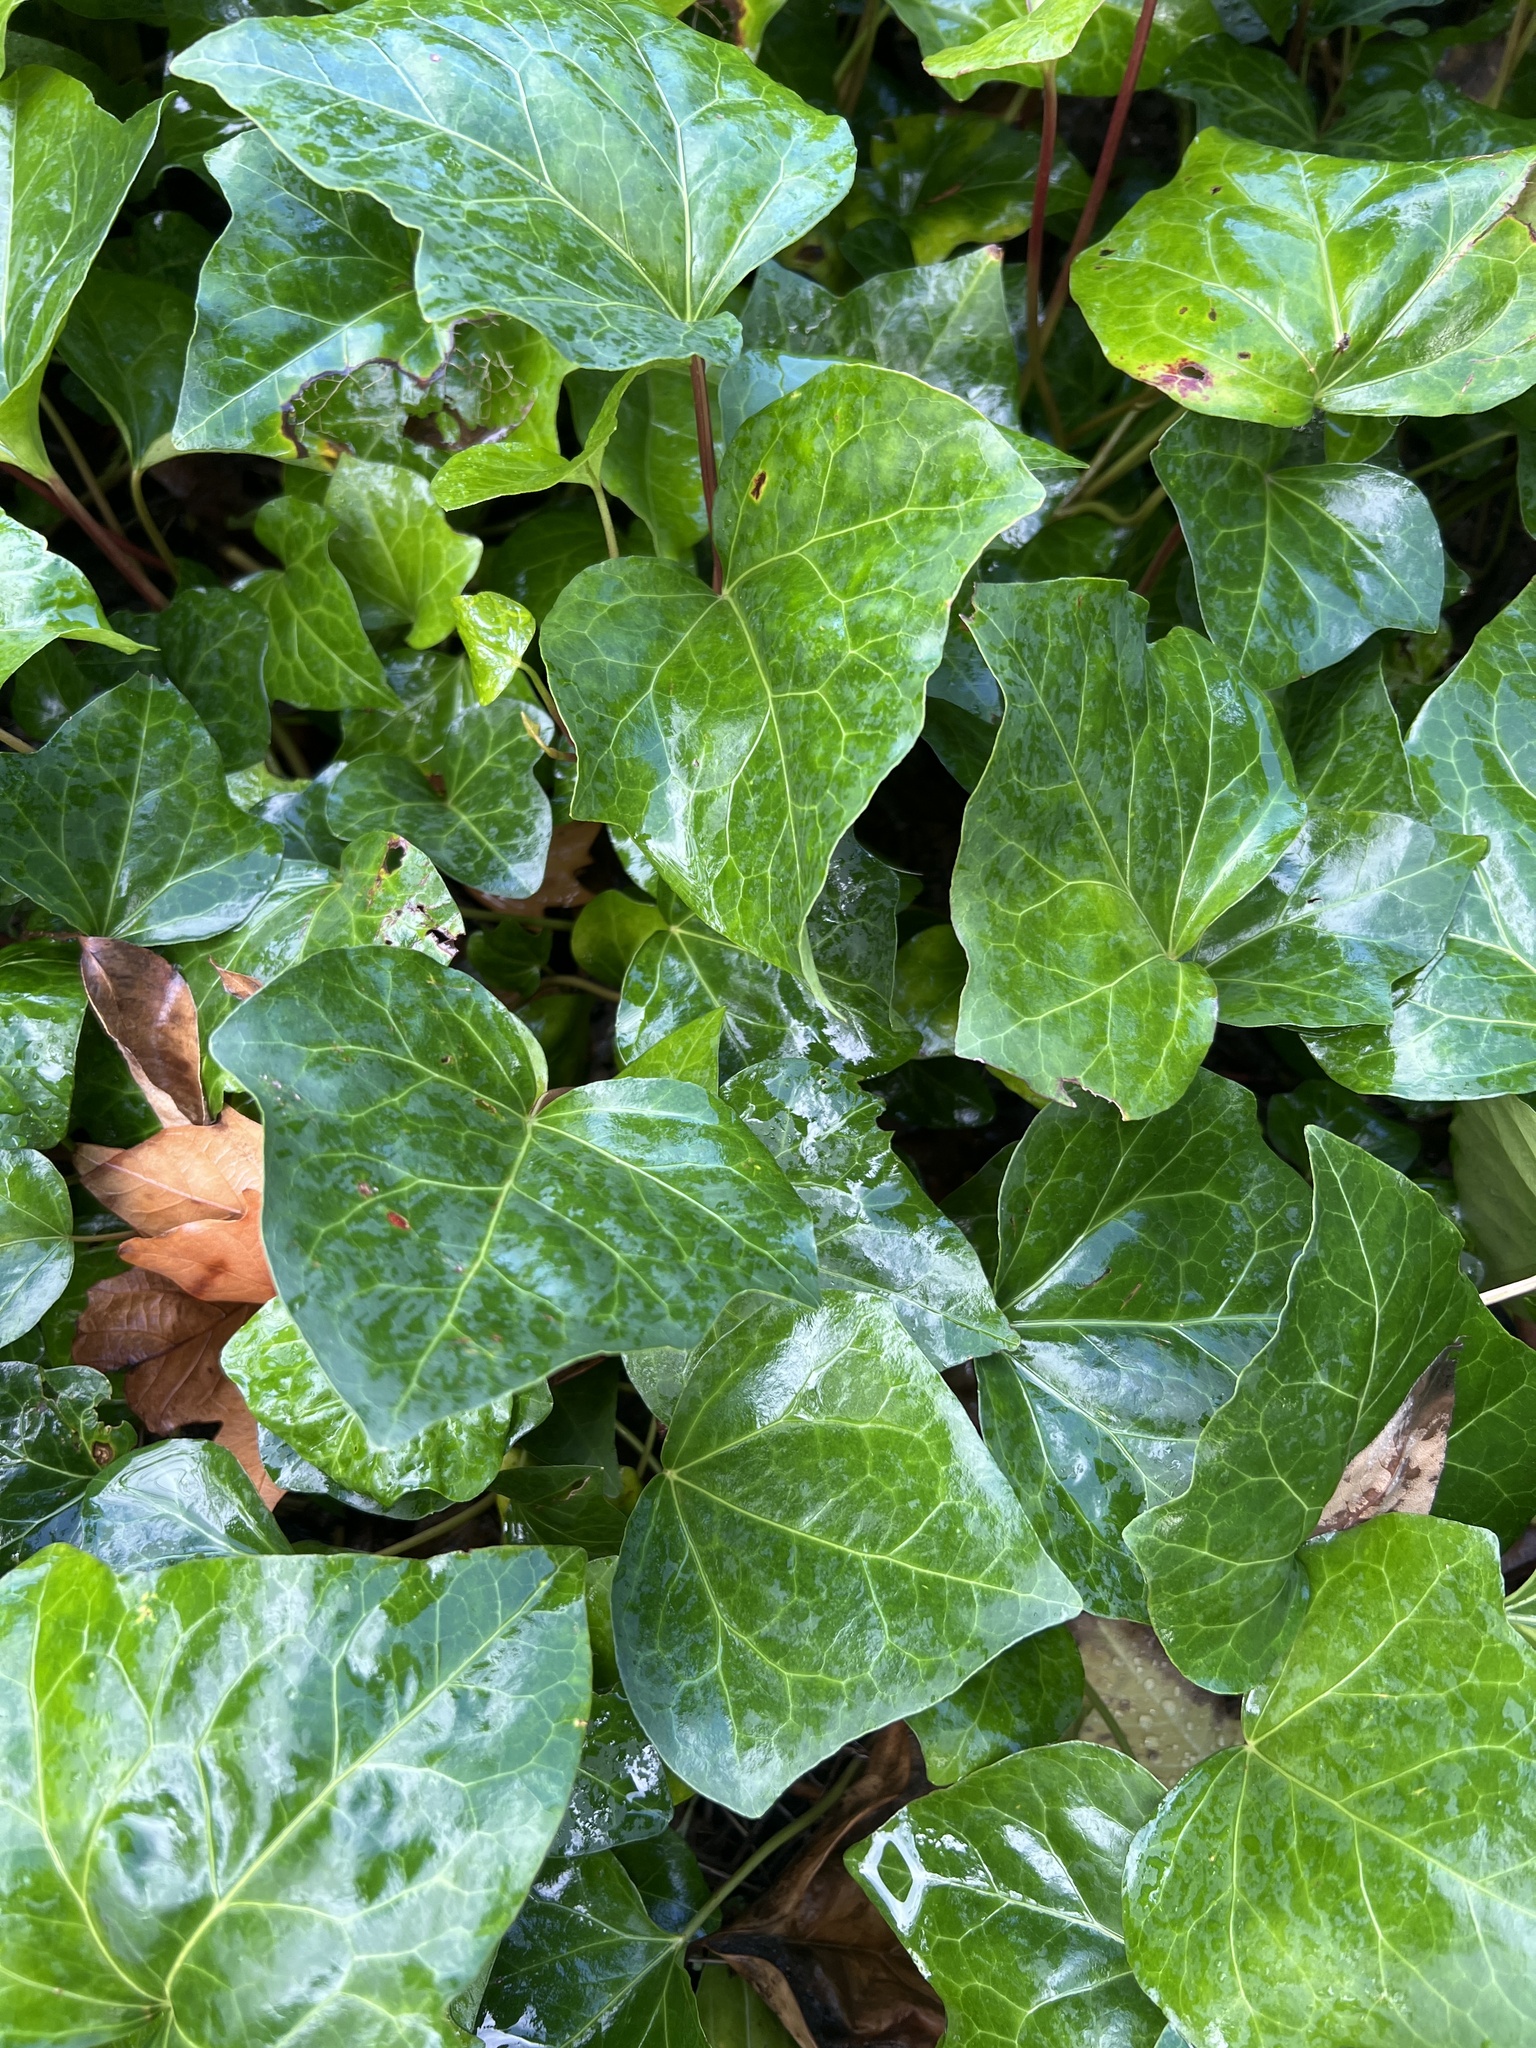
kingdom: Plantae
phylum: Tracheophyta
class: Magnoliopsida
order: Apiales
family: Araliaceae
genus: Hedera
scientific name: Hedera helix
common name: Ivy
